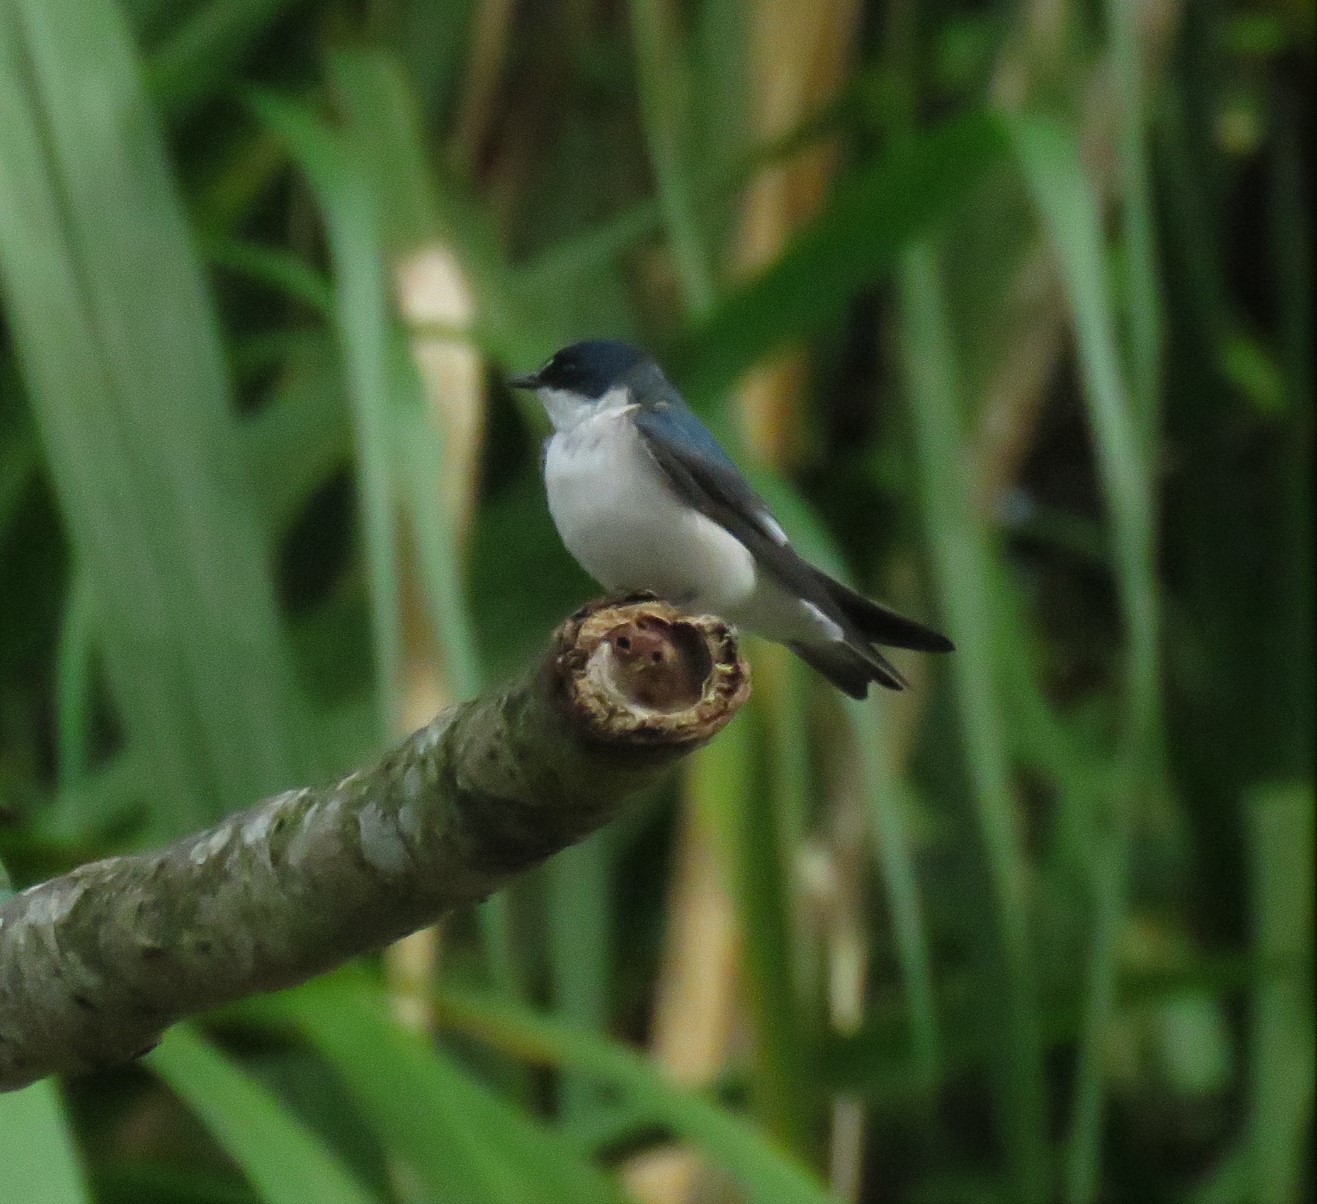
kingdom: Animalia
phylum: Chordata
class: Aves
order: Passeriformes
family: Hirundinidae
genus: Tachycineta
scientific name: Tachycineta albilinea
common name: Mangrove swallow
